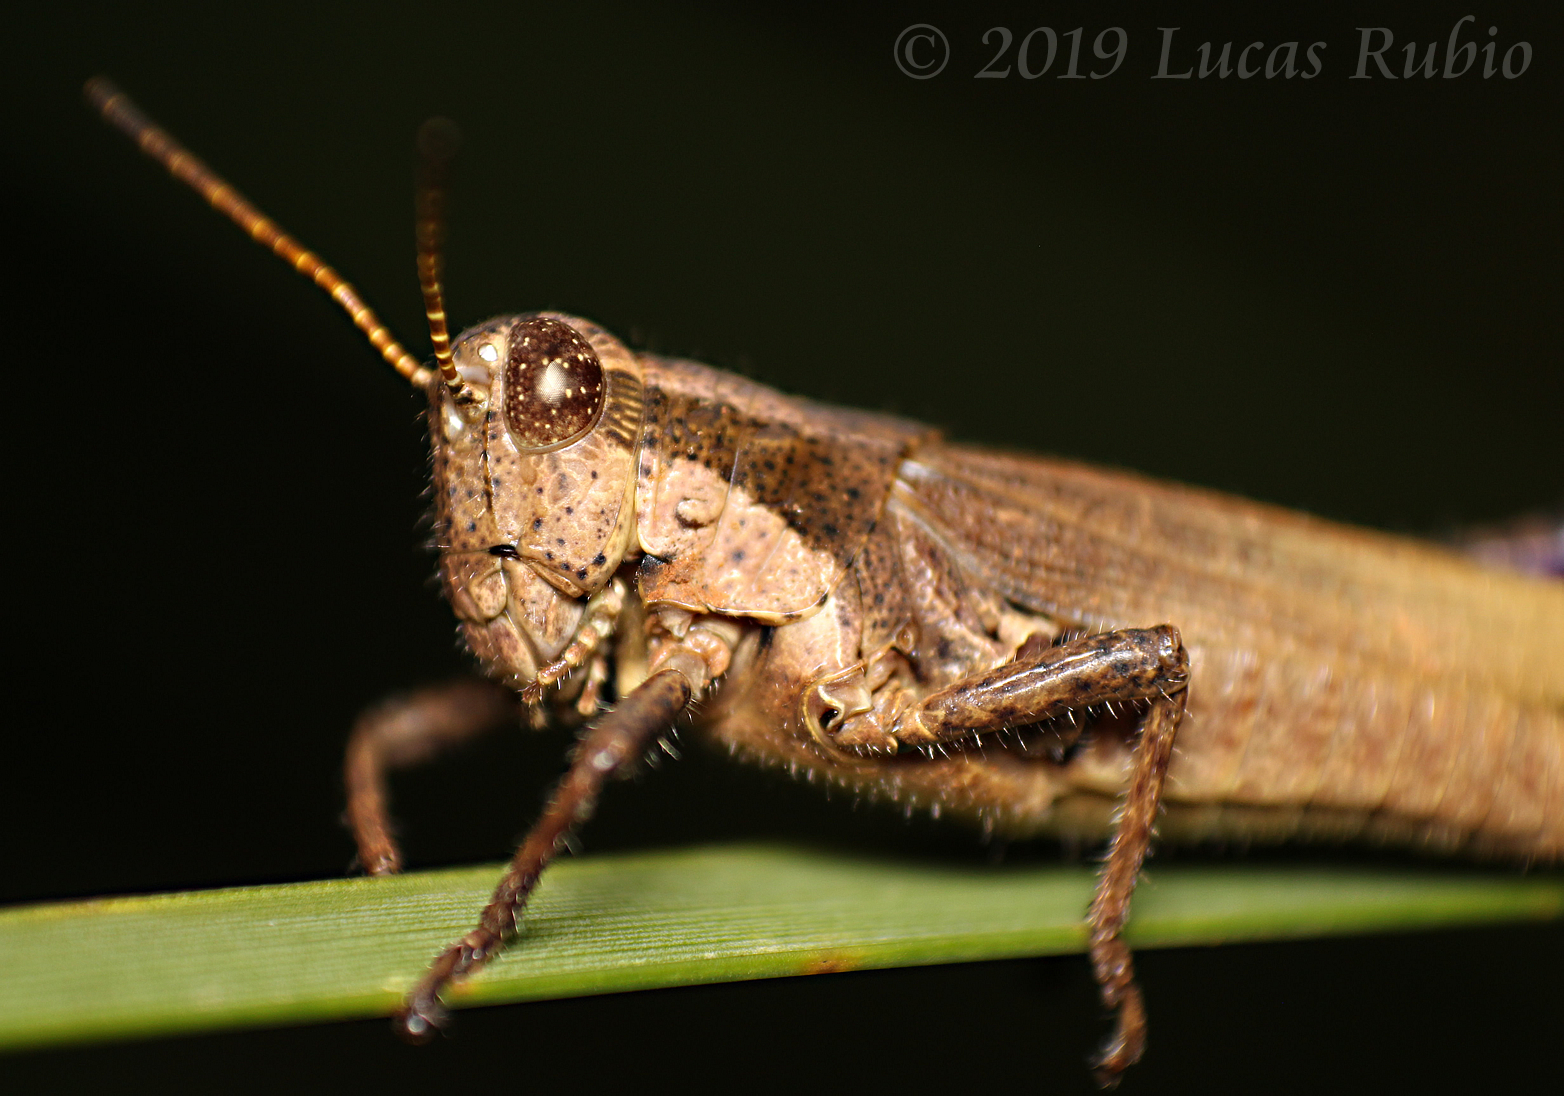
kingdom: Animalia
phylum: Arthropoda
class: Insecta
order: Orthoptera
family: Acrididae
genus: Ronderosia
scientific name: Ronderosia bergii
